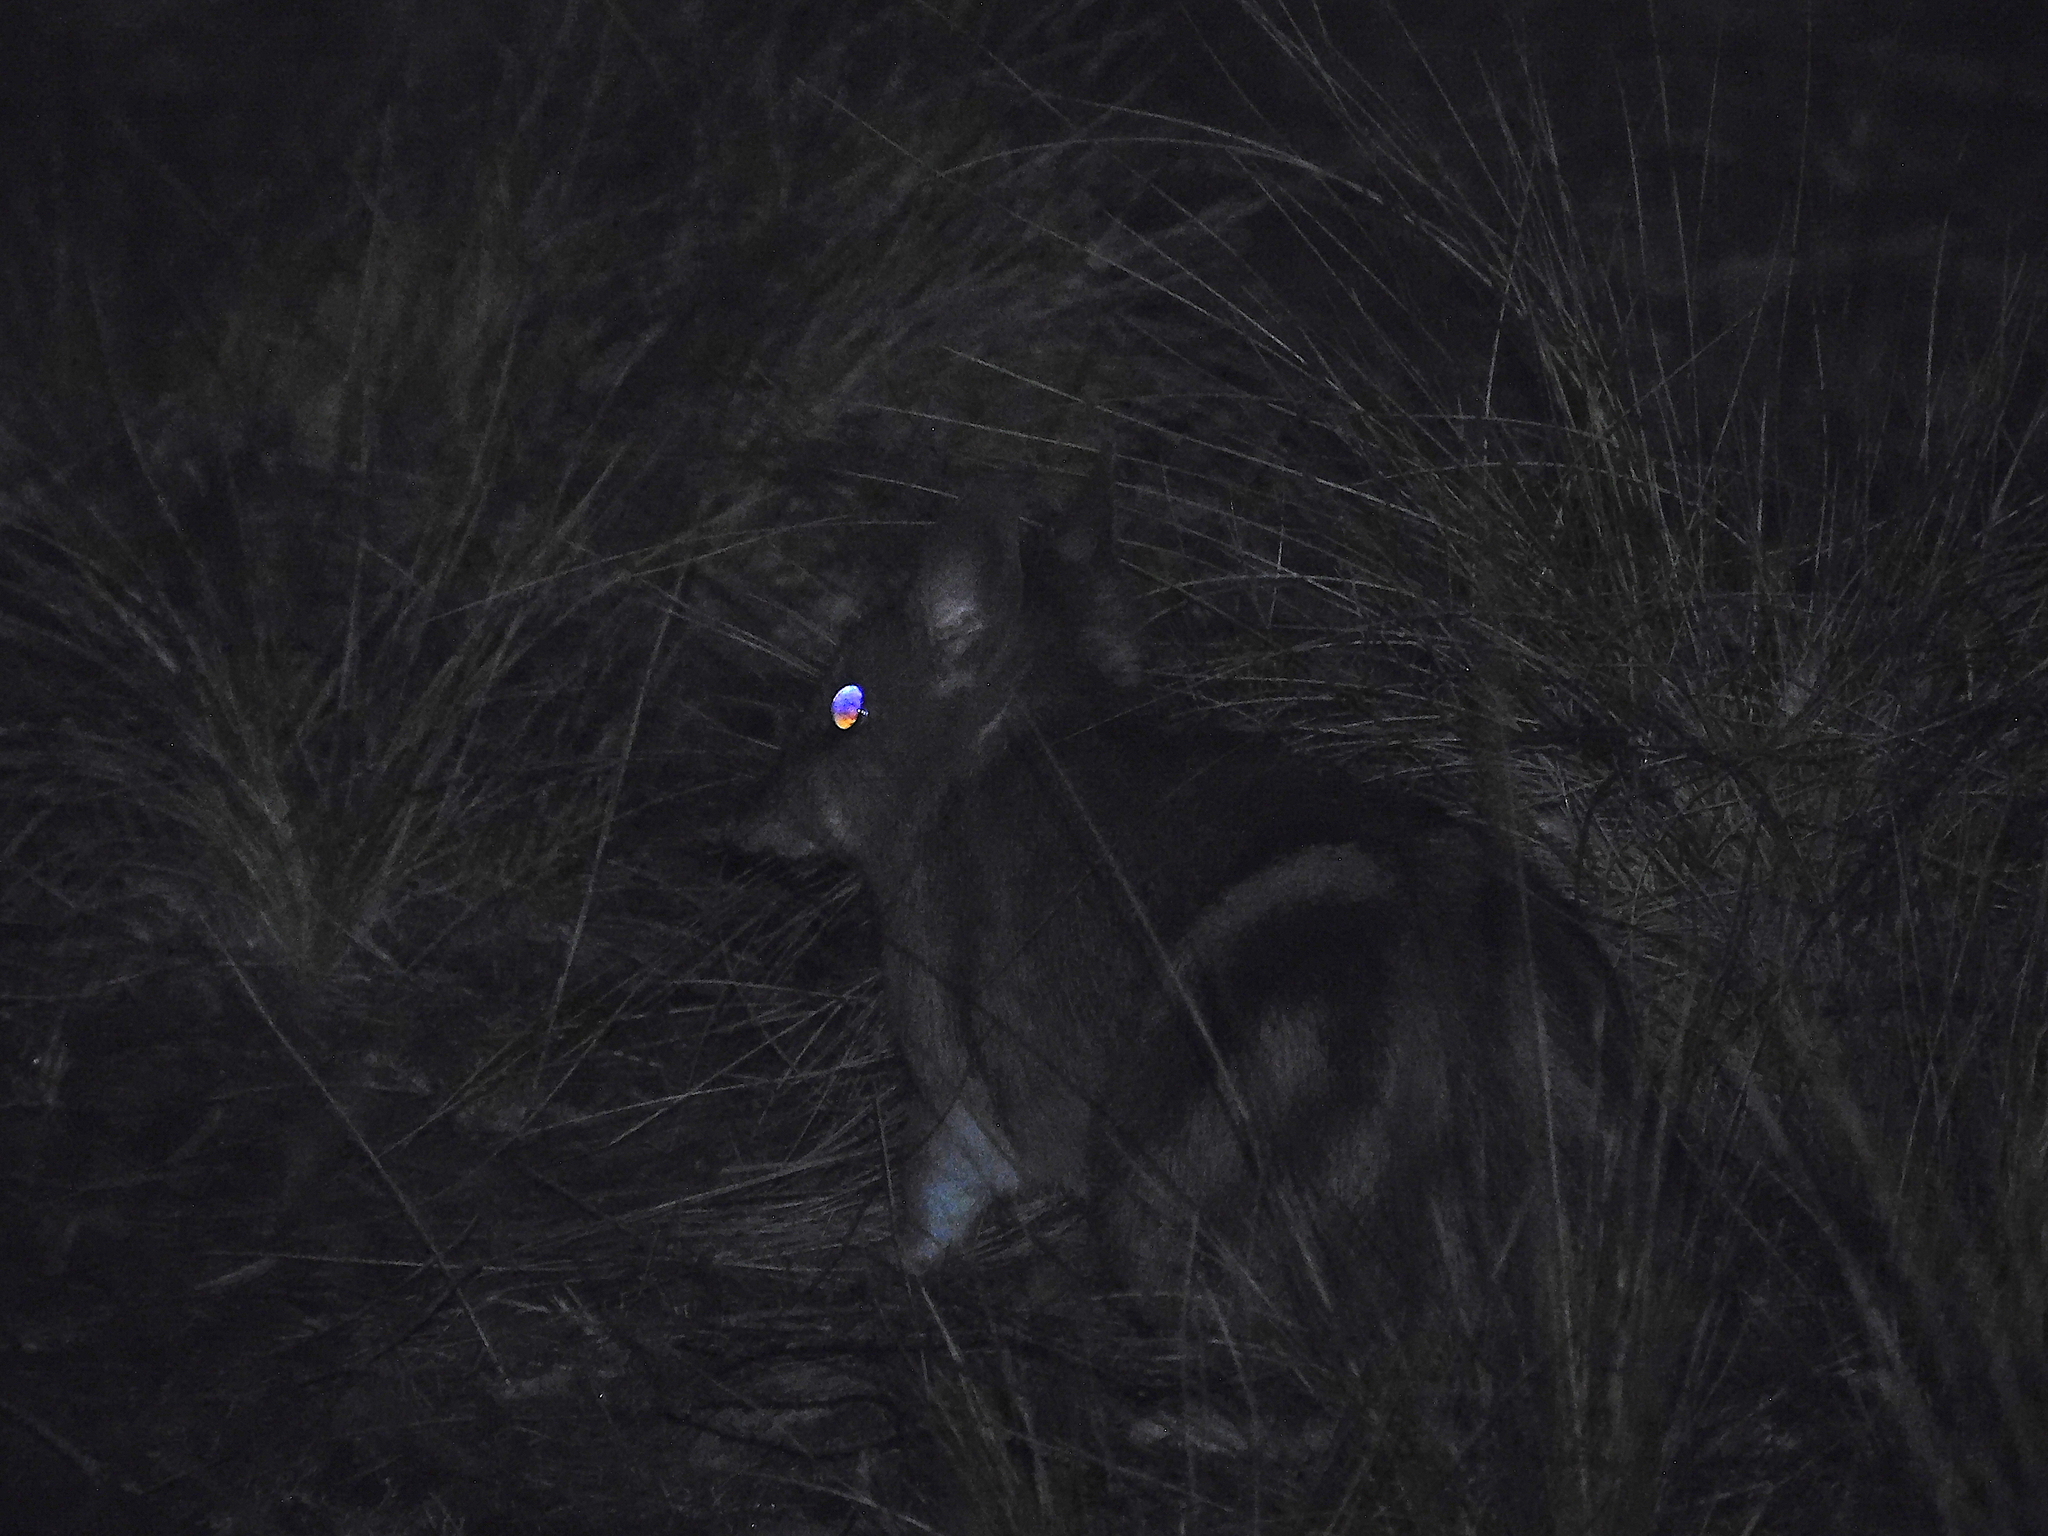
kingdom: Animalia
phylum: Chordata
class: Mammalia
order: Peramelemorphia
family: Peramelidae
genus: Perameles
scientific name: Perameles gunnii
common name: Eastern barred bandicoot
